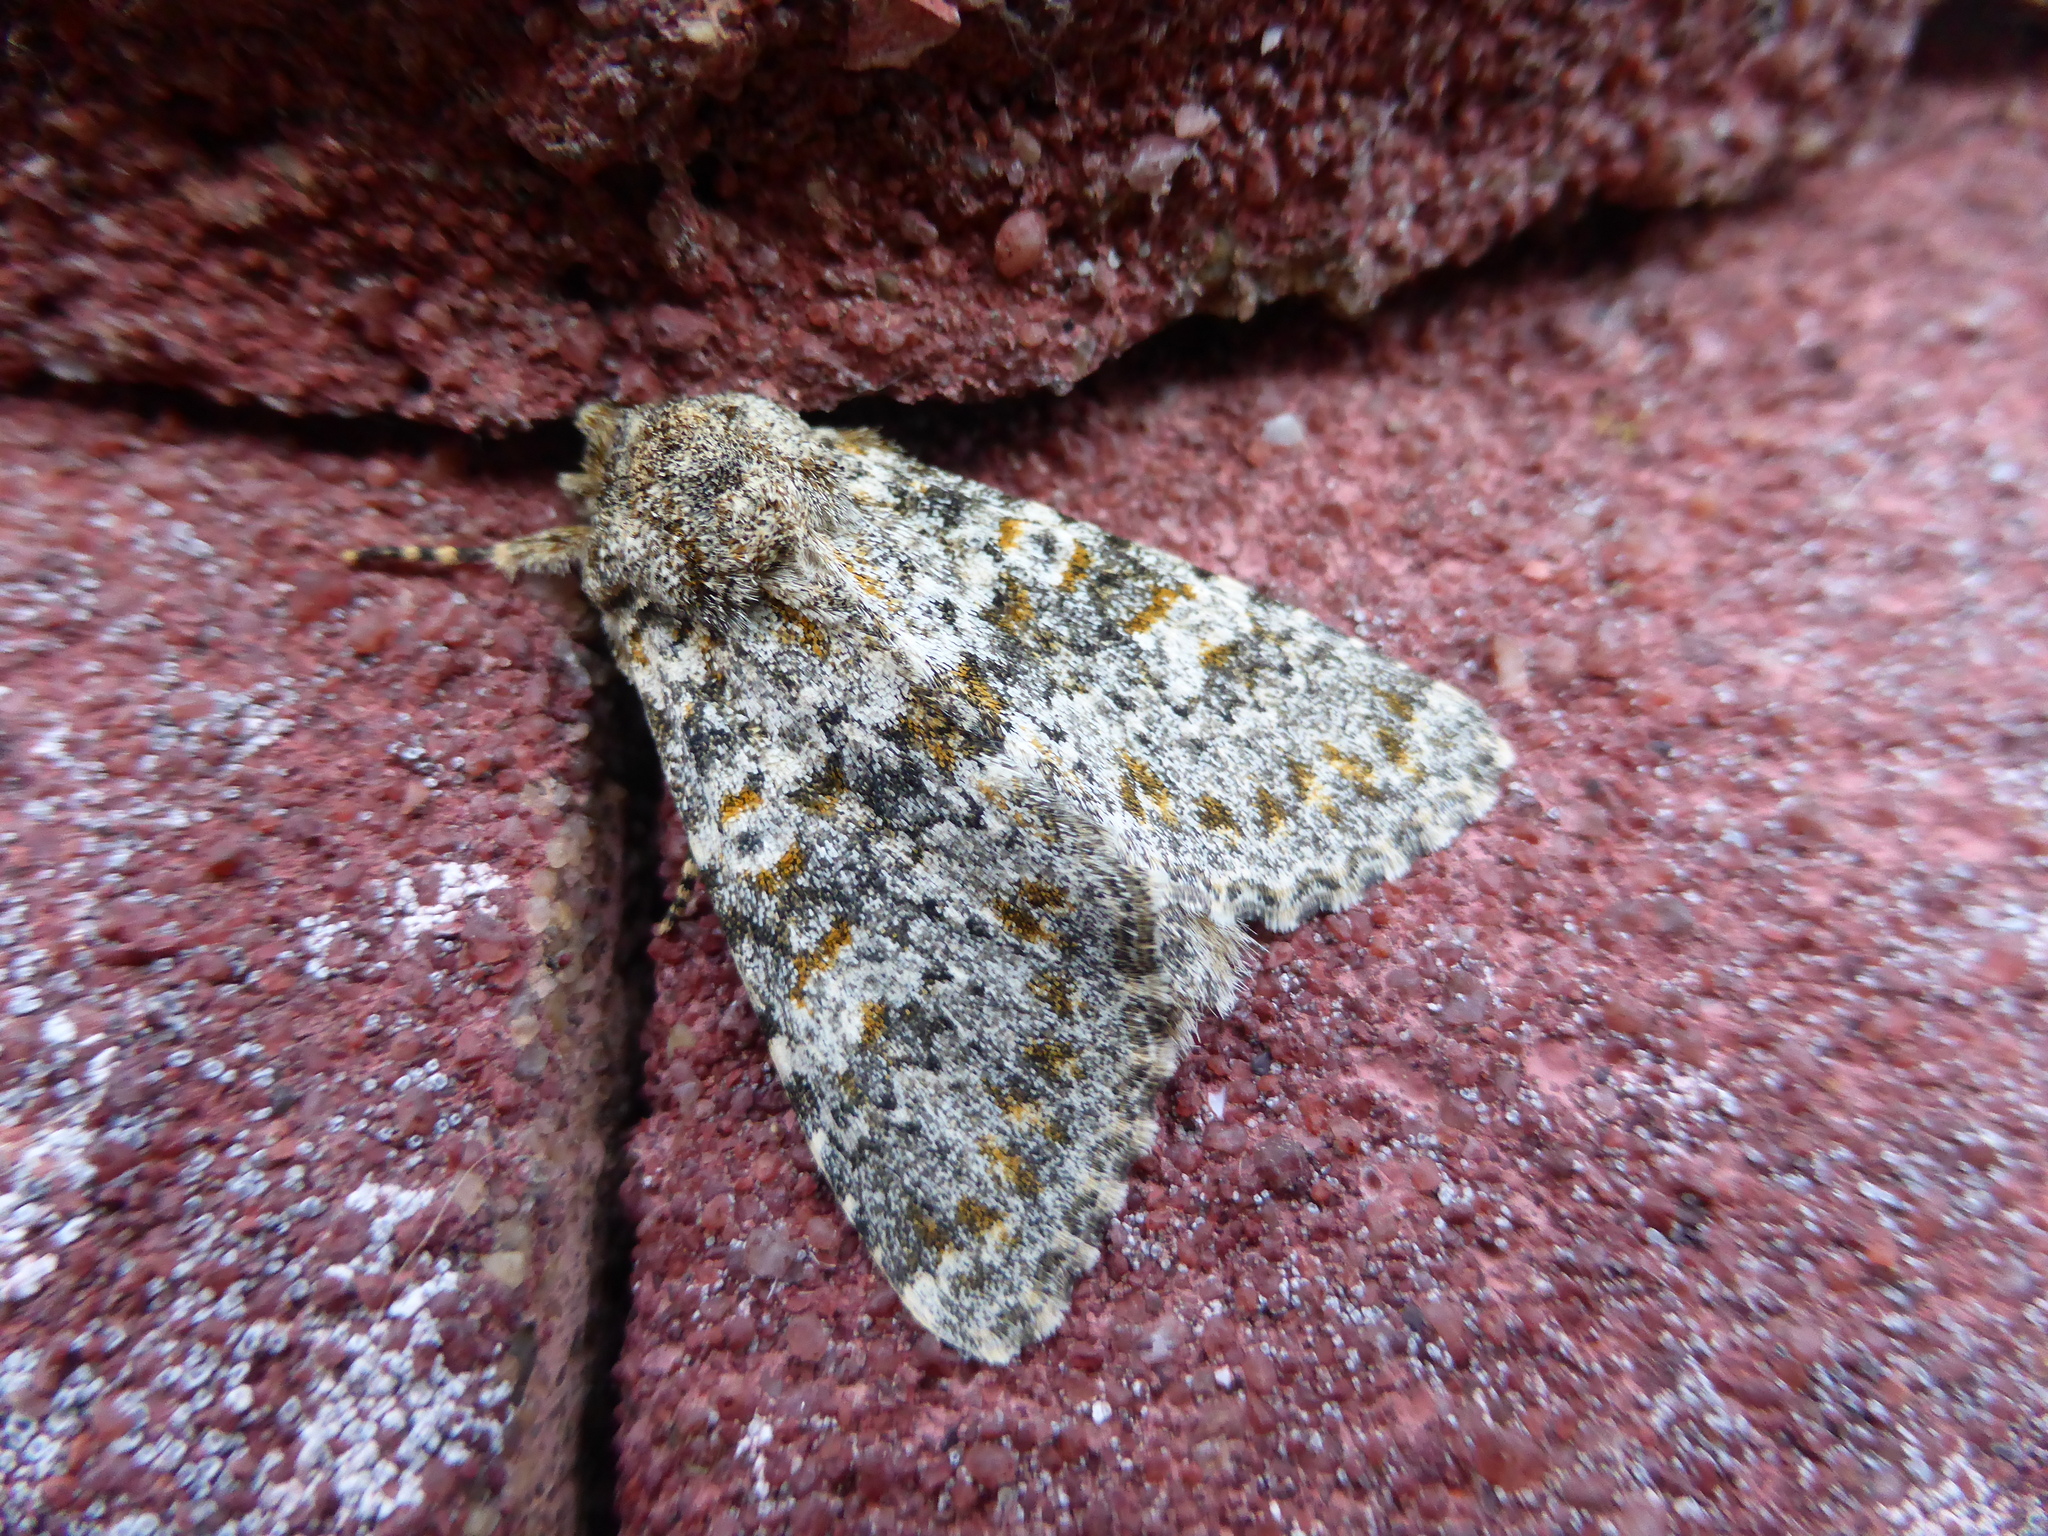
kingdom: Animalia
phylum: Arthropoda
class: Insecta
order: Lepidoptera
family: Noctuidae
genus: Polymixis
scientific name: Polymixis flavicincta
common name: Large ranunculus
